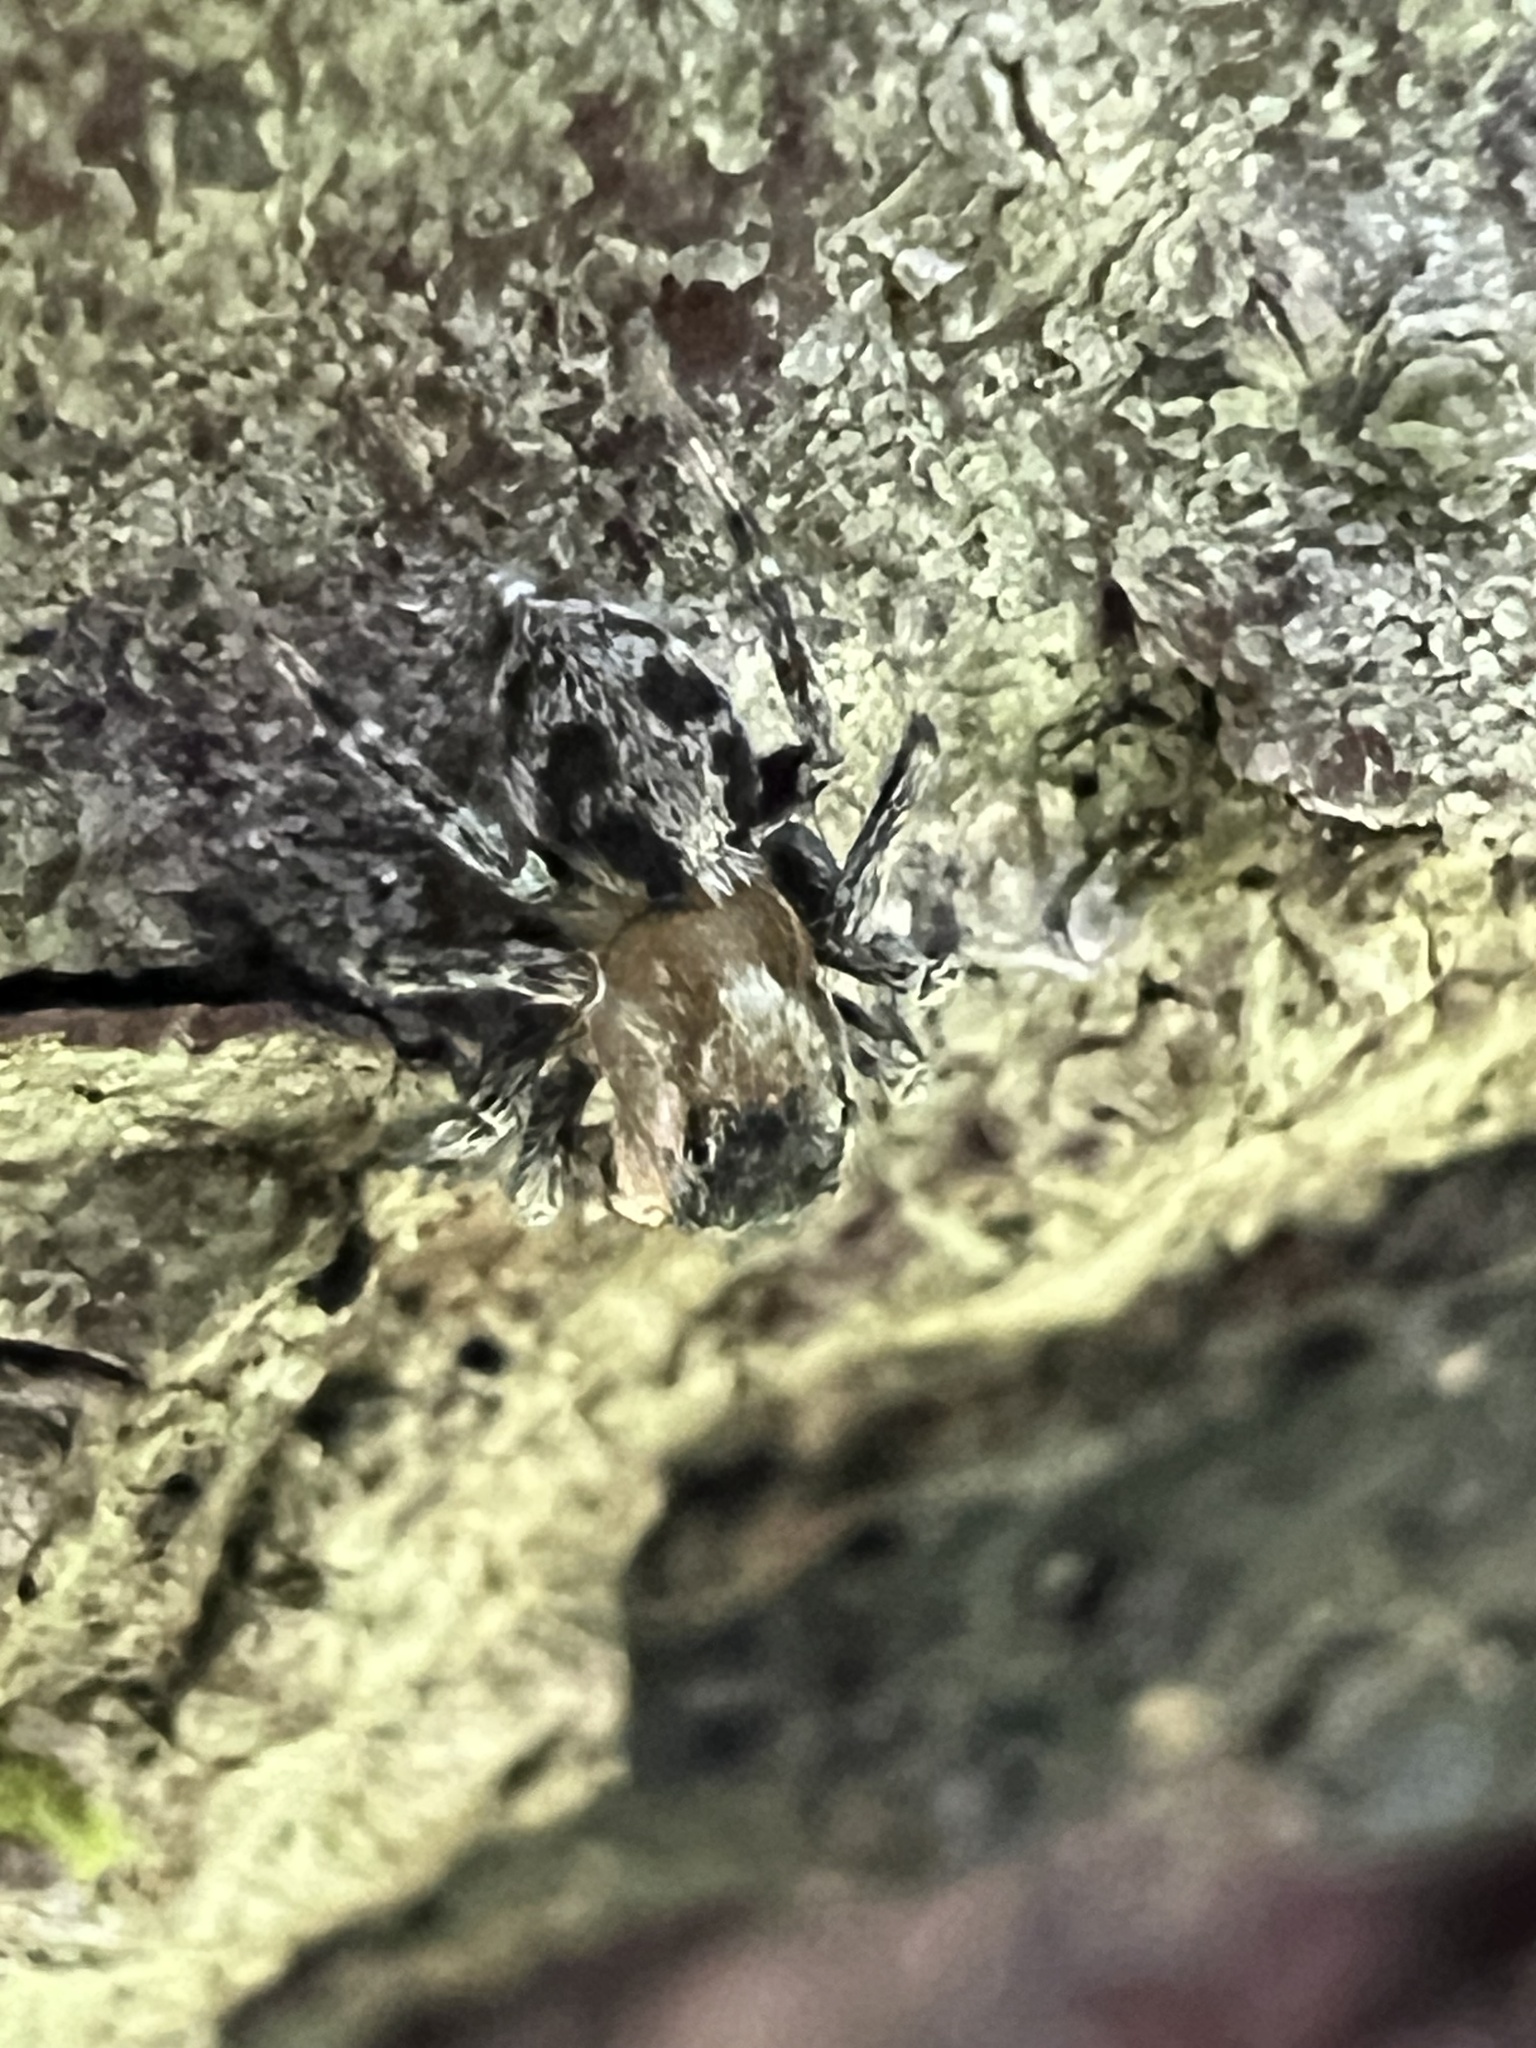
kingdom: Animalia
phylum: Arthropoda
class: Arachnida
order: Araneae
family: Salticidae
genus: Naphrys
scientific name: Naphrys pulex
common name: Flea jumping spider
